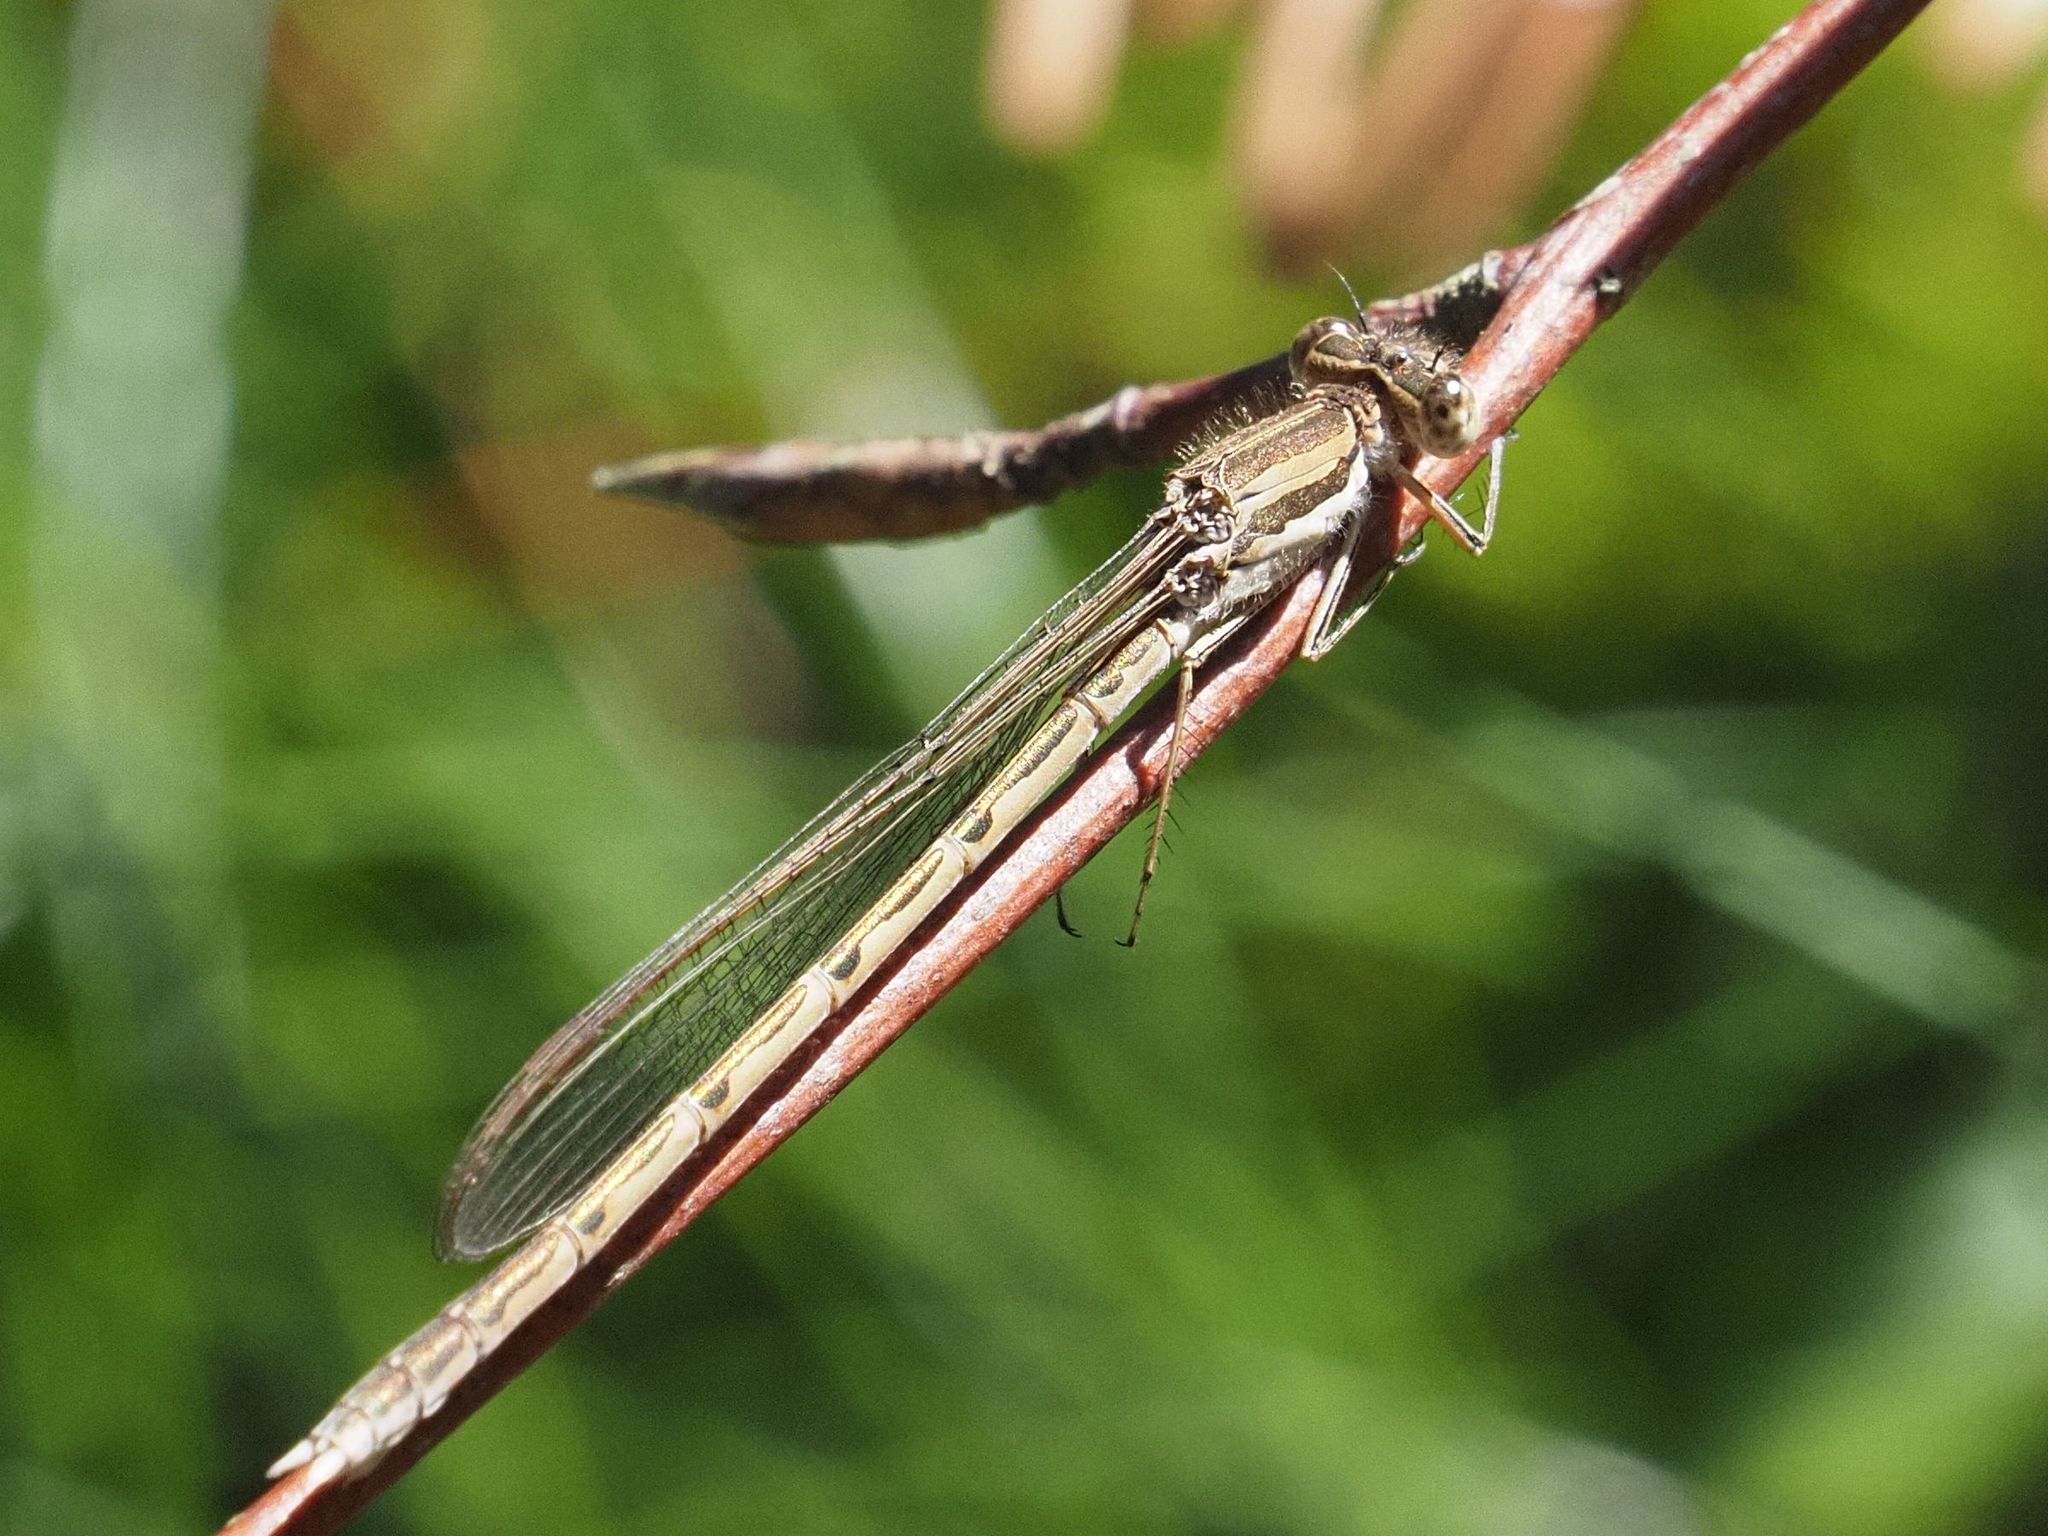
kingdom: Animalia
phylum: Arthropoda
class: Insecta
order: Odonata
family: Lestidae
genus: Sympecma
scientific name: Sympecma fusca
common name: Common winter damsel
